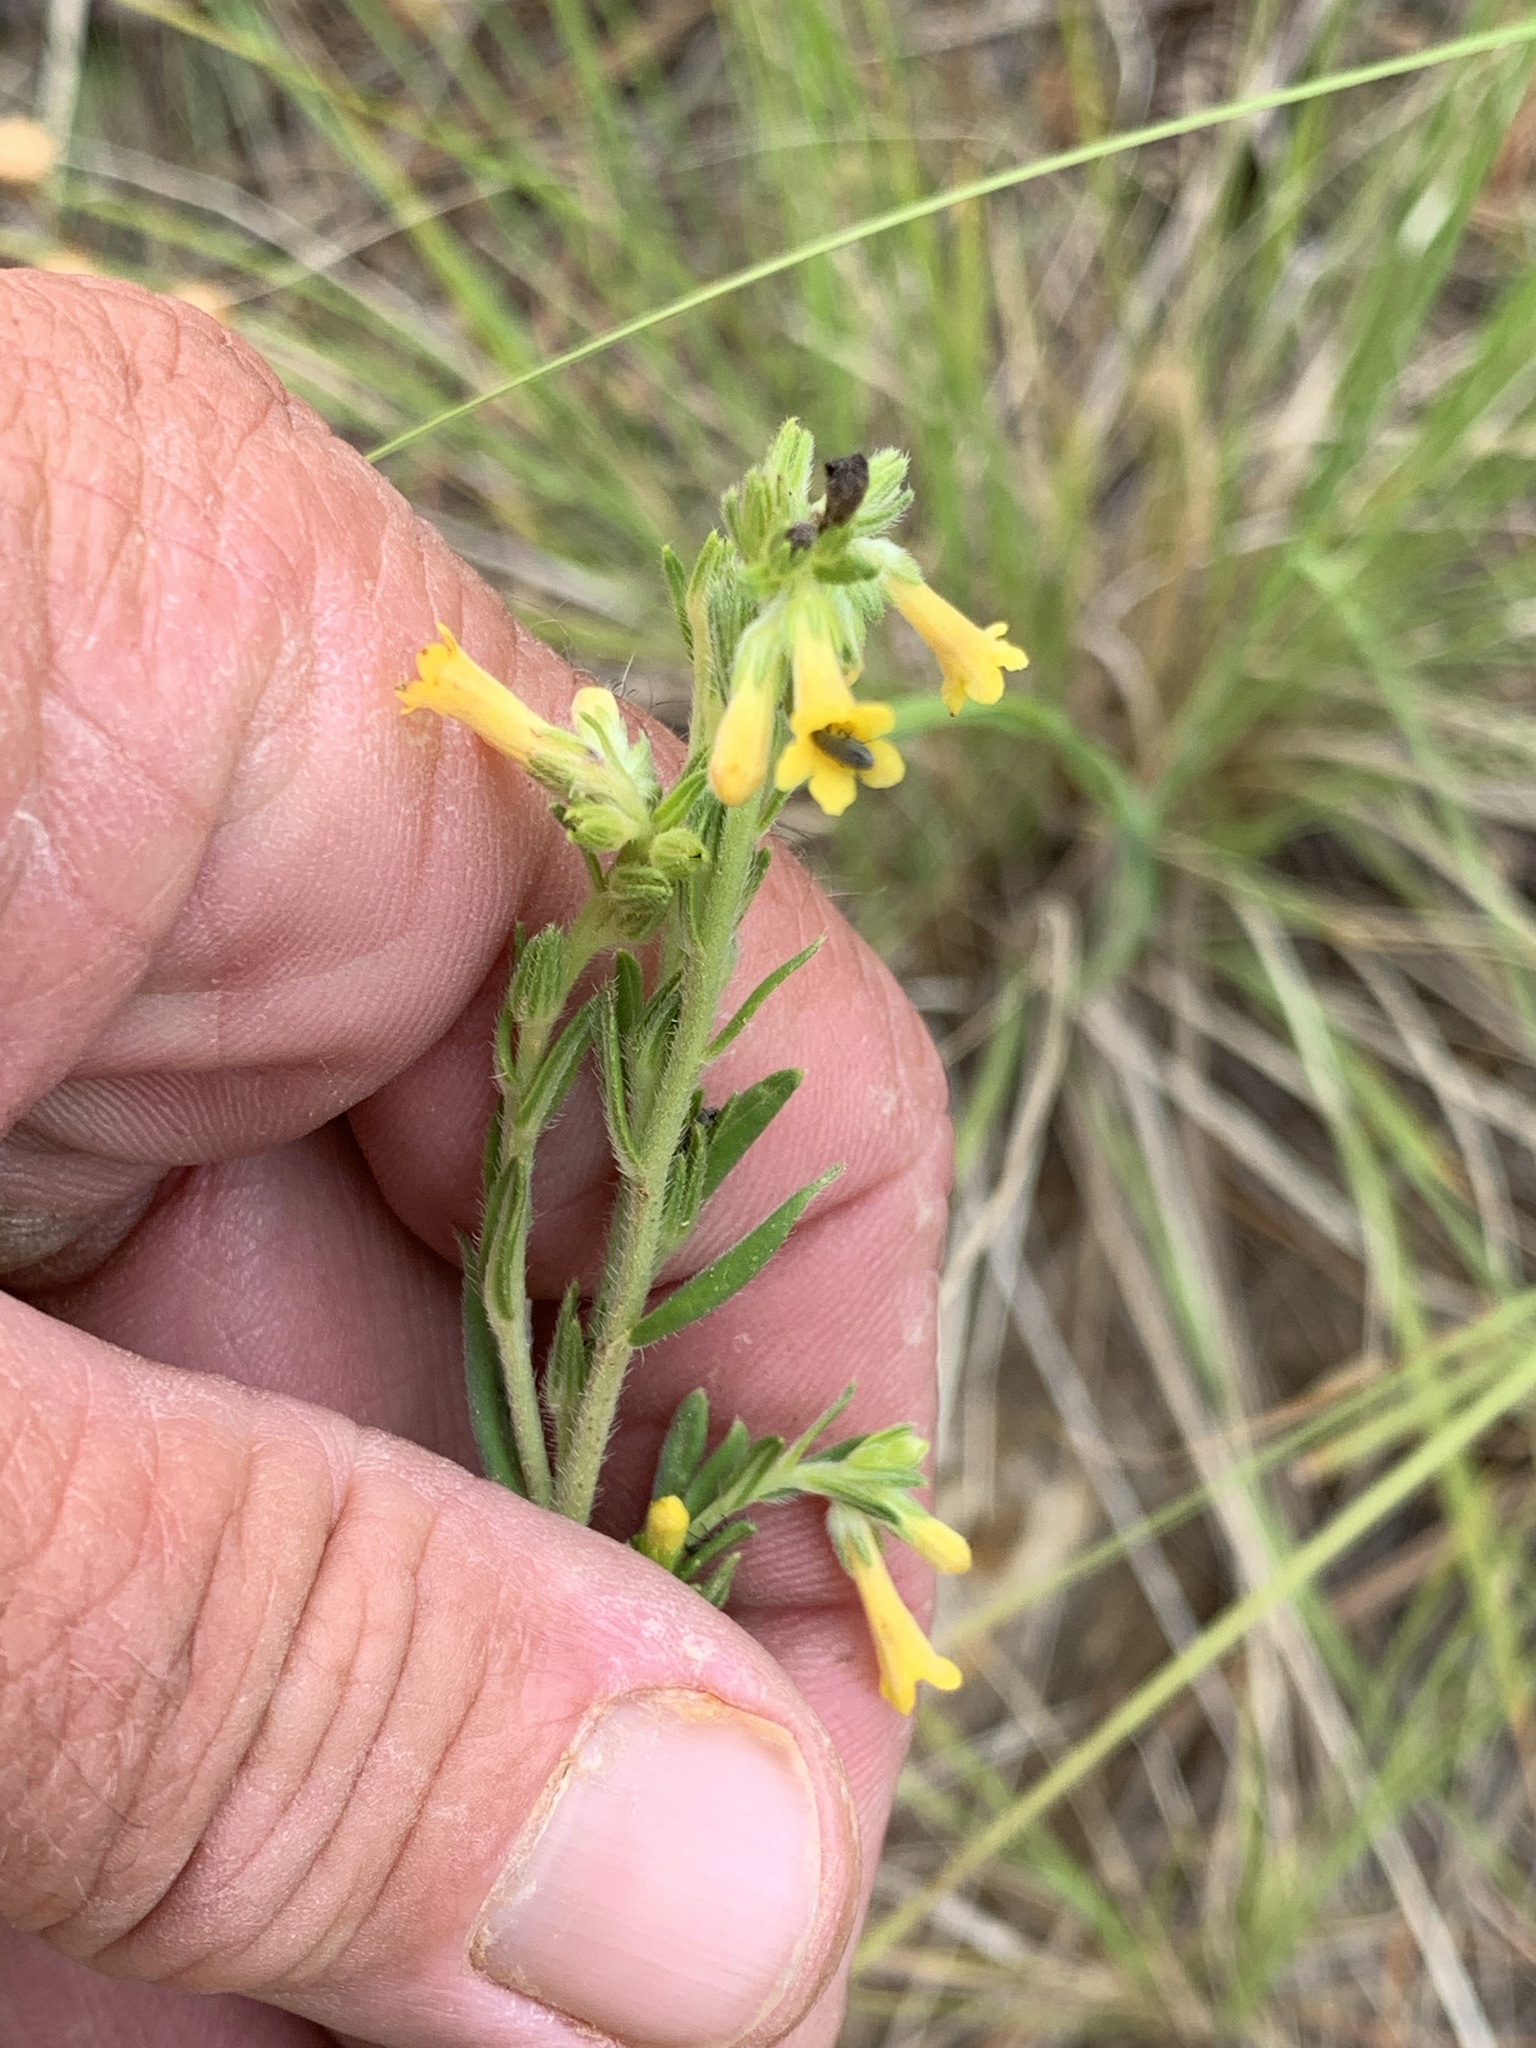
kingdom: Plantae
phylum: Tracheophyta
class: Magnoliopsida
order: Boraginales
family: Boraginaceae
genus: Lithospermum
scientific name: Lithospermum multiflorum
